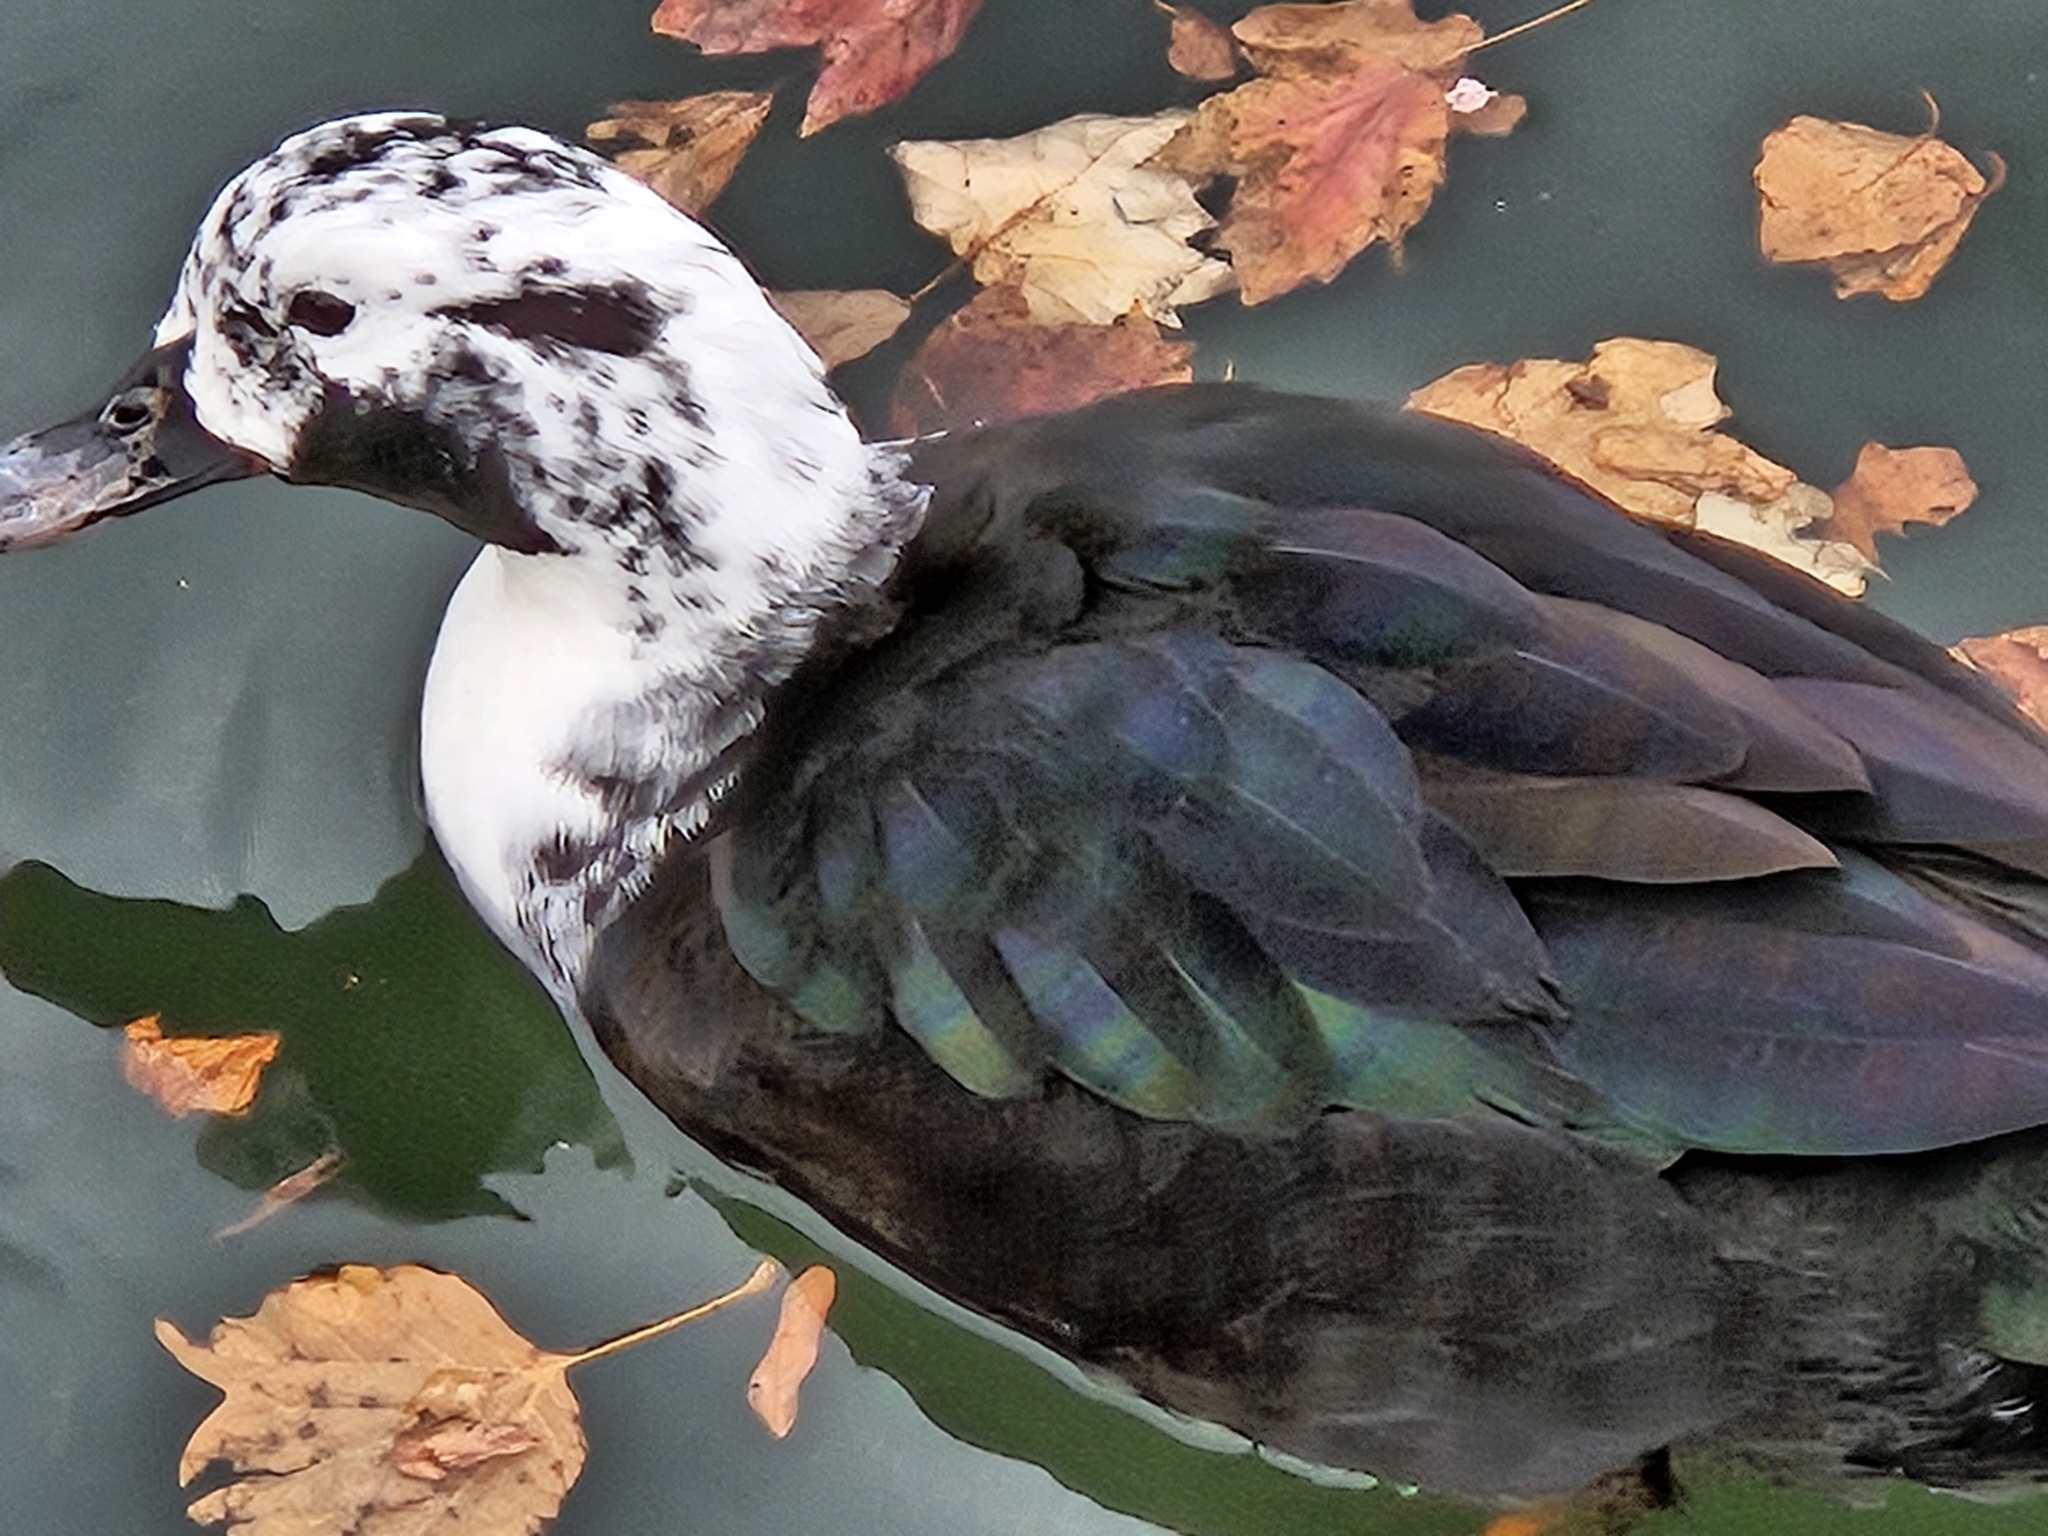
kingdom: Animalia
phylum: Chordata
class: Aves
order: Anseriformes
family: Anatidae
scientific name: Anatidae
